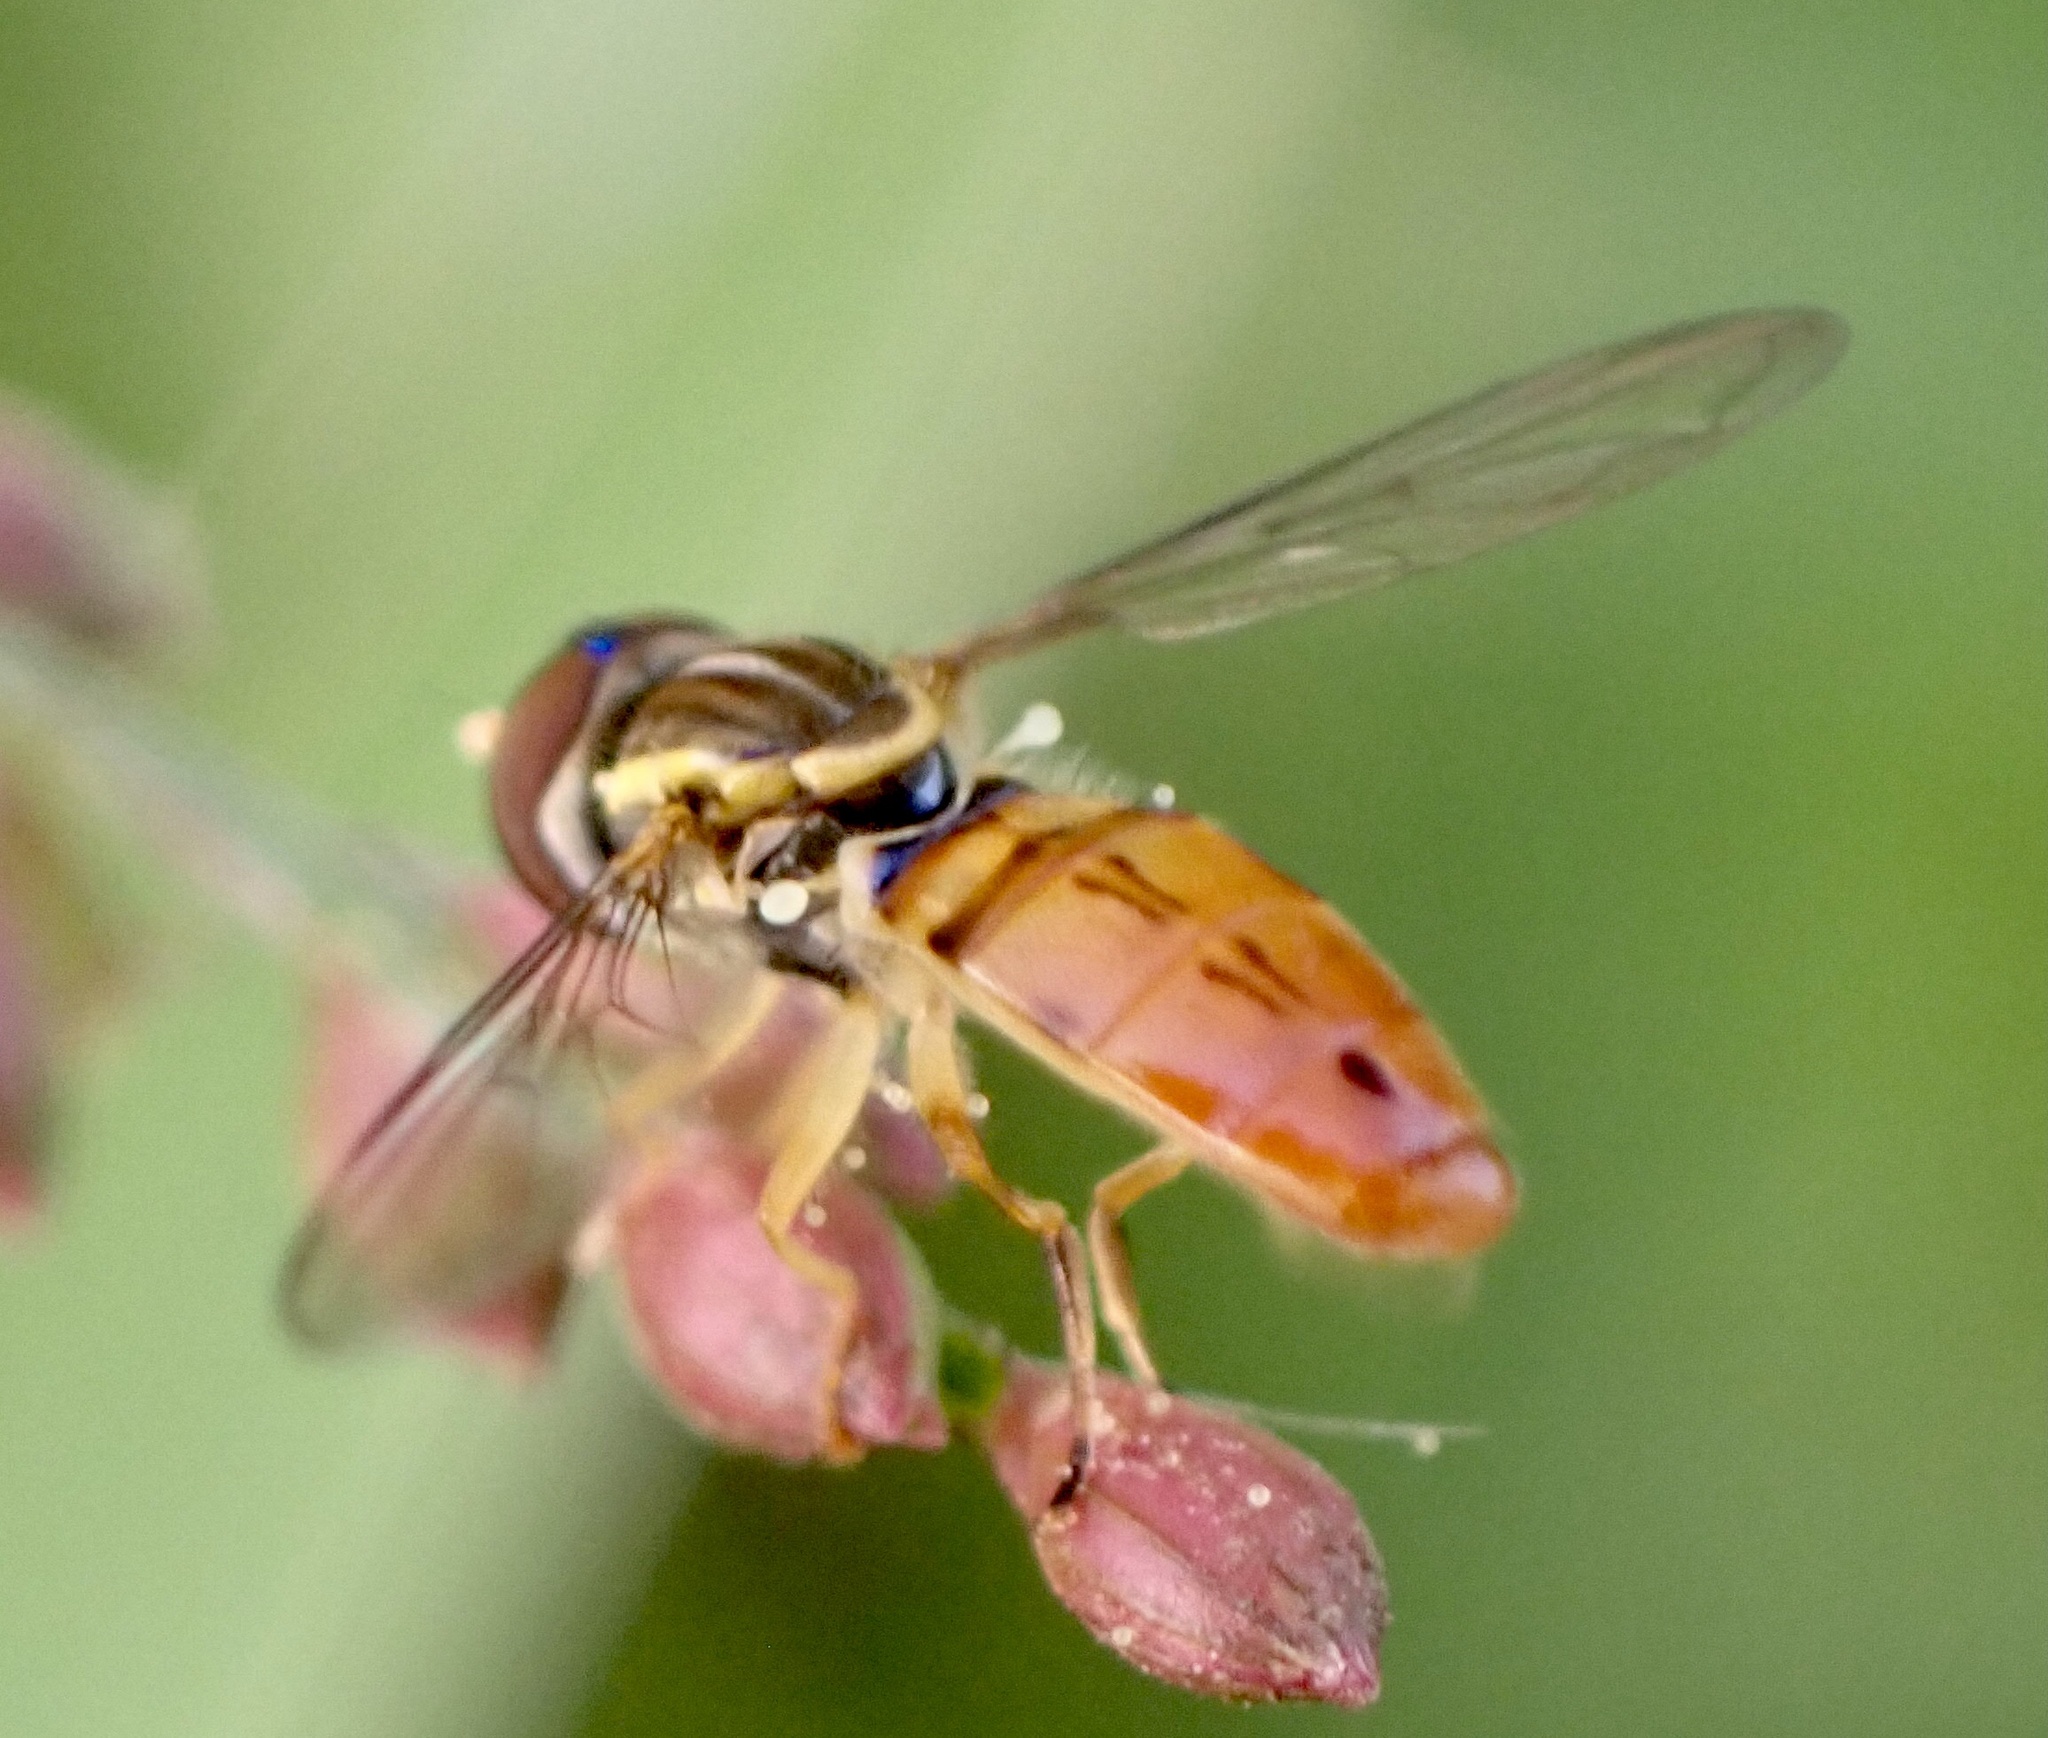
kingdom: Animalia
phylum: Arthropoda
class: Insecta
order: Diptera
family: Syrphidae
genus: Toxomerus
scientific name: Toxomerus floralis
